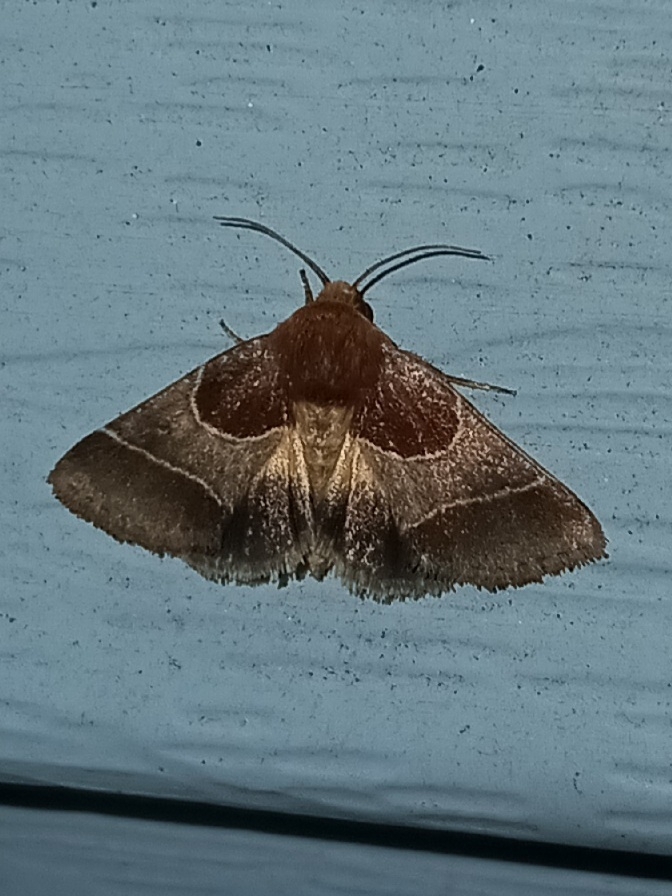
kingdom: Animalia
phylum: Arthropoda
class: Insecta
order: Lepidoptera
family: Noctuidae
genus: Schinia
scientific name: Schinia arcigera
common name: Arcigera flower moth
